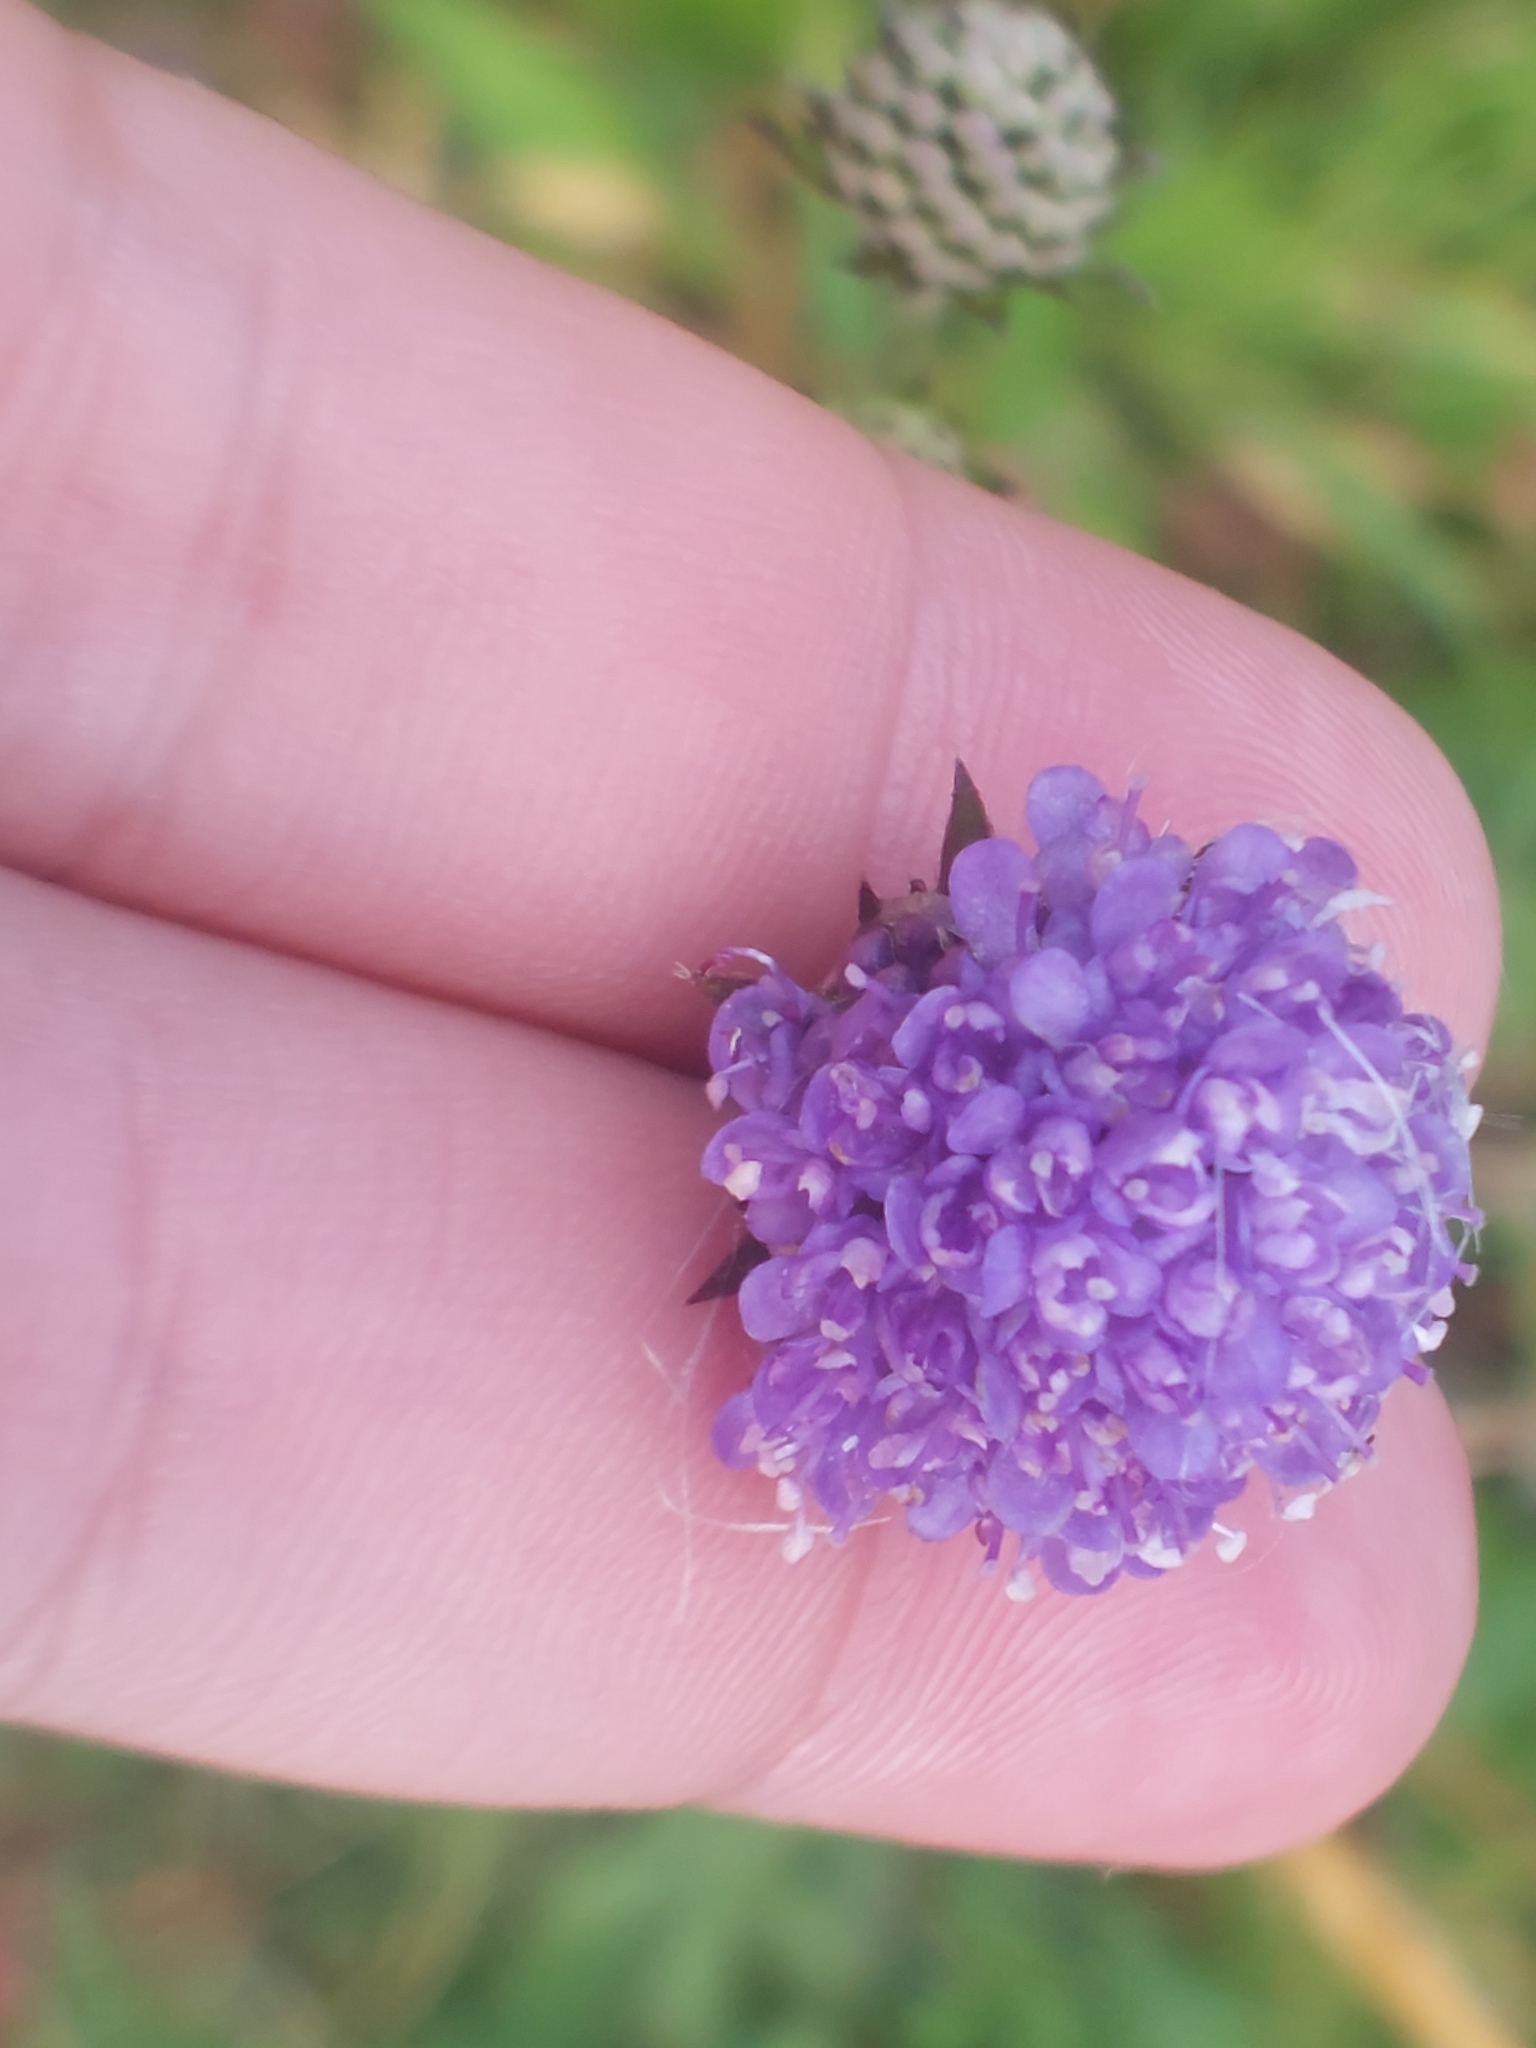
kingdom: Plantae
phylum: Tracheophyta
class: Magnoliopsida
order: Dipsacales
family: Caprifoliaceae
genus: Succisa
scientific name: Succisa pratensis
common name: Devil's-bit
